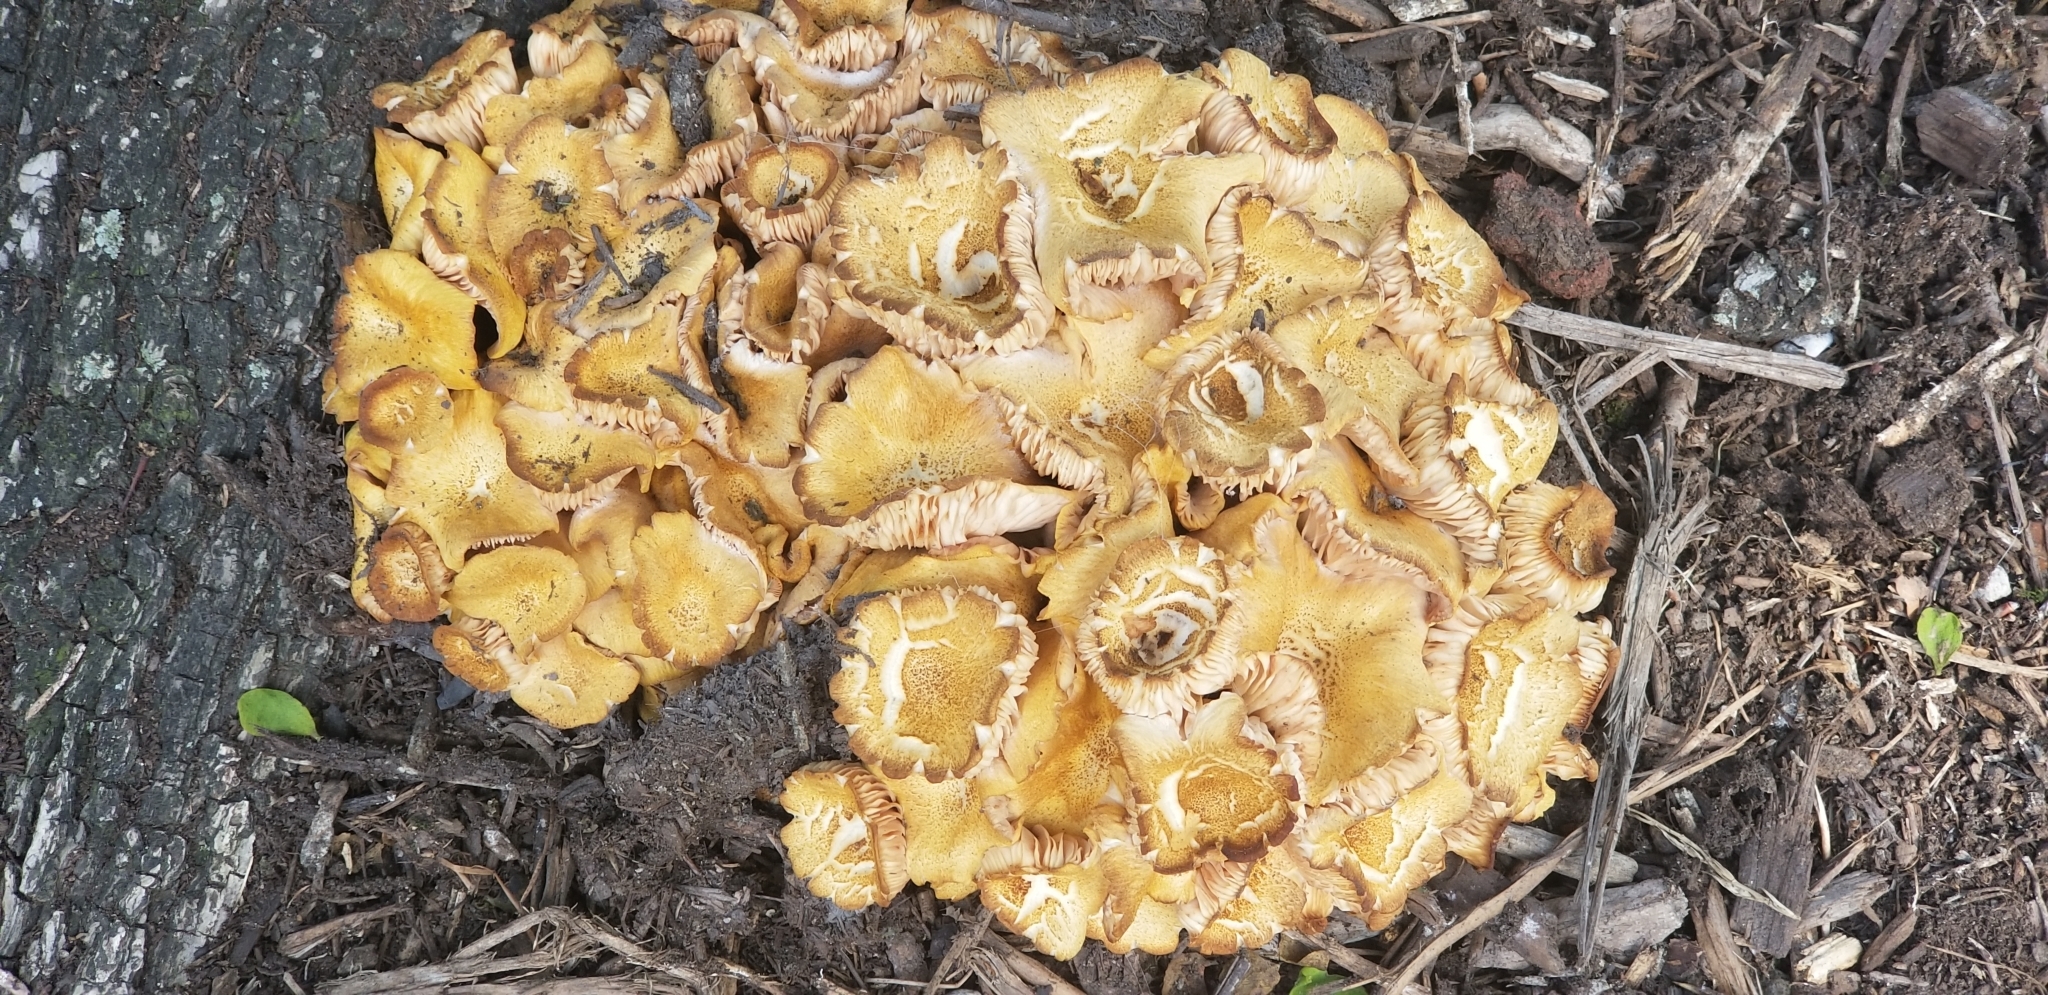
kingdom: Fungi
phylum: Basidiomycota
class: Agaricomycetes
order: Agaricales
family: Physalacriaceae
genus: Desarmillaria
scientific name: Desarmillaria caespitosa
